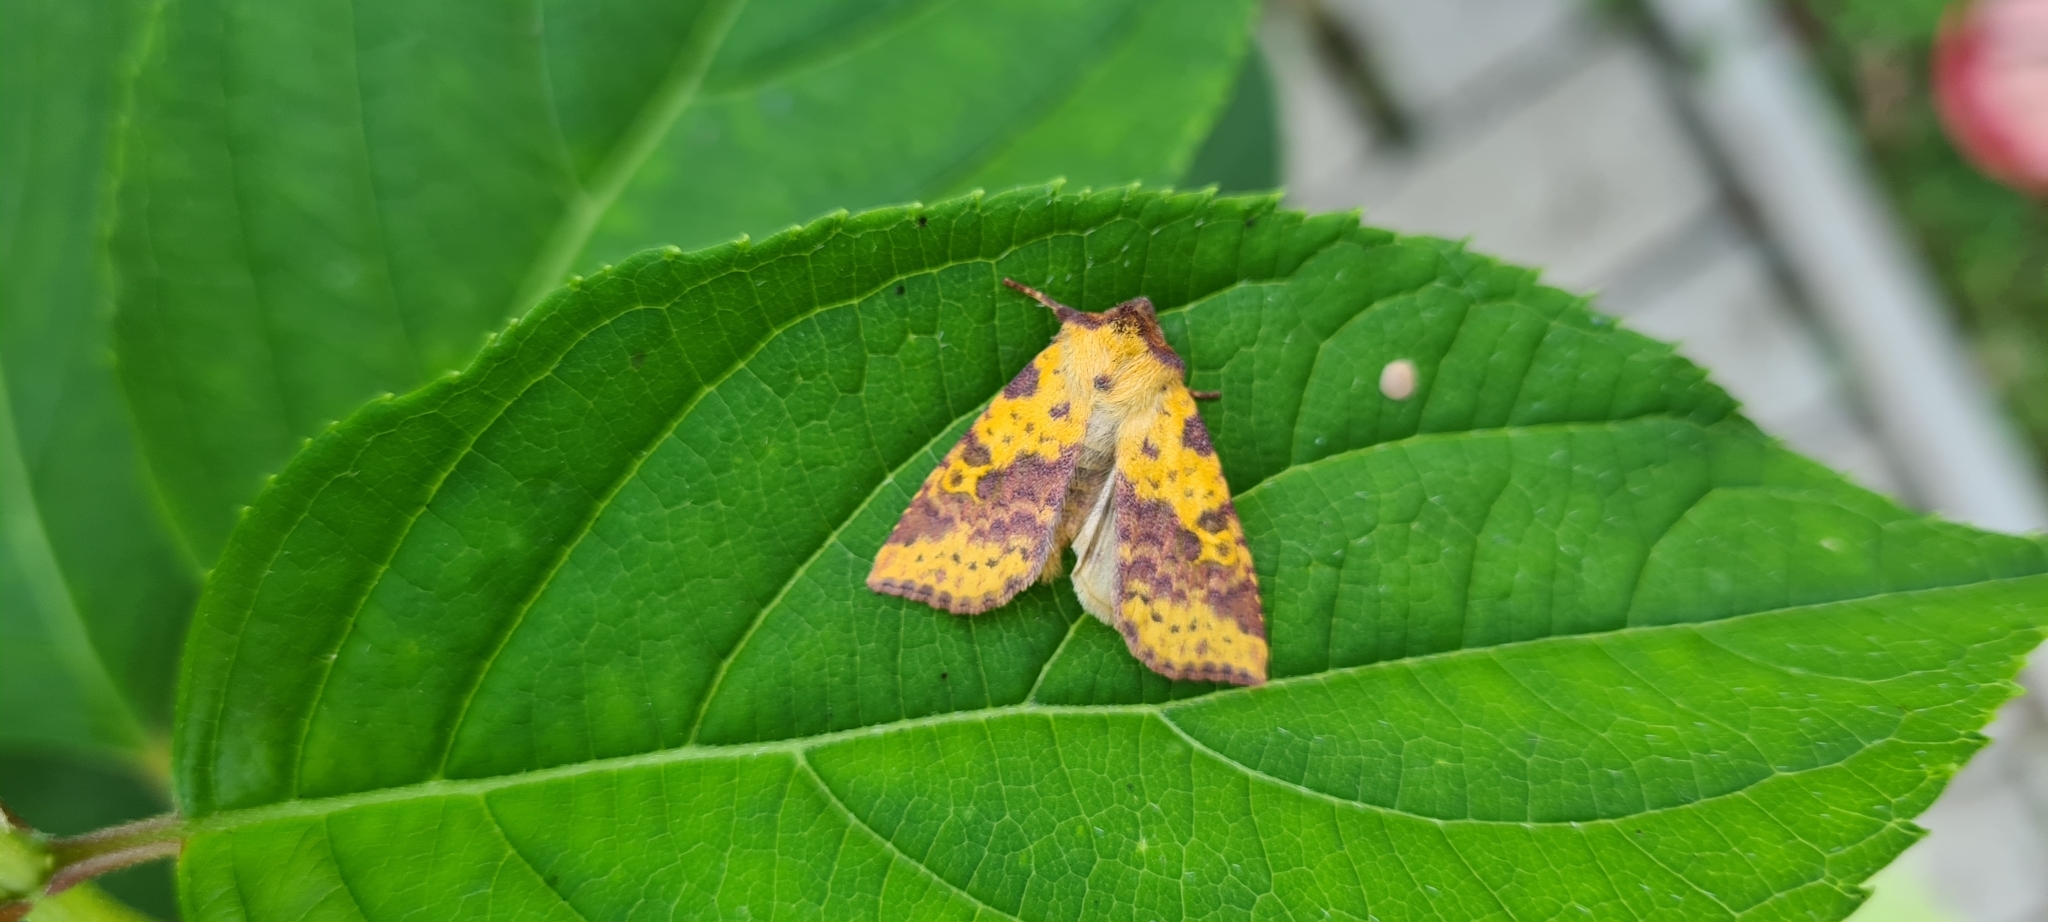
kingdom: Animalia
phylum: Arthropoda
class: Insecta
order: Lepidoptera
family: Noctuidae
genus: Xanthia
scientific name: Xanthia togata
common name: Pink-barred sallow
